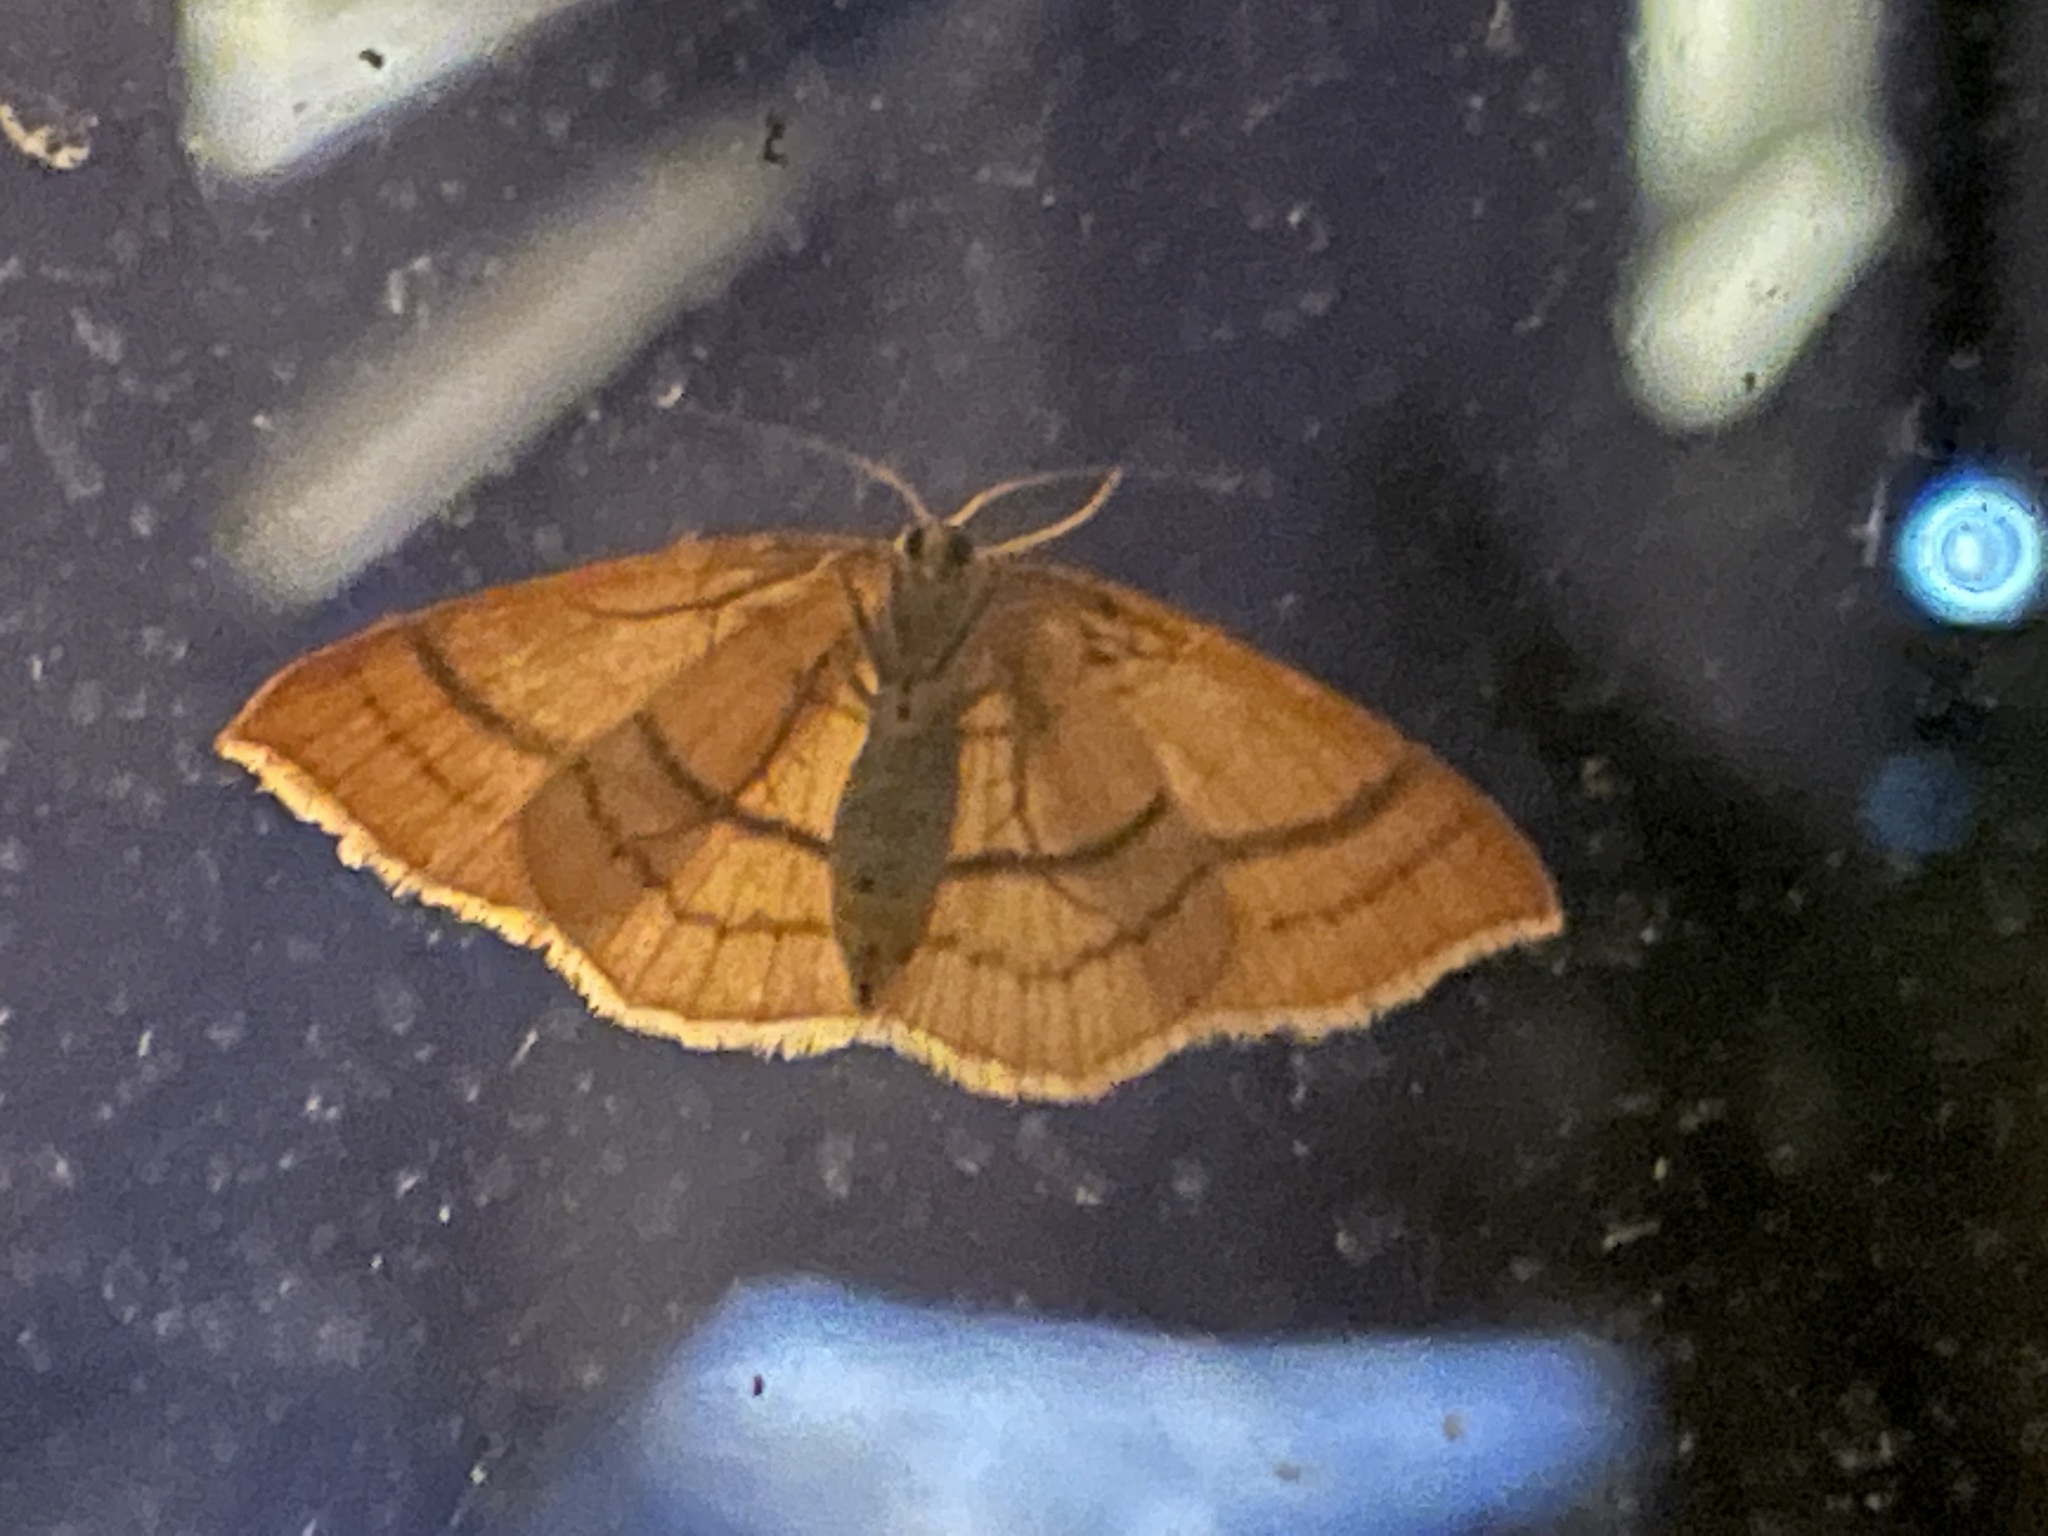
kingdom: Animalia
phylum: Arthropoda
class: Insecta
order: Lepidoptera
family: Geometridae
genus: Cyclophora
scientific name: Cyclophora linearia
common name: Clay triple-lines
